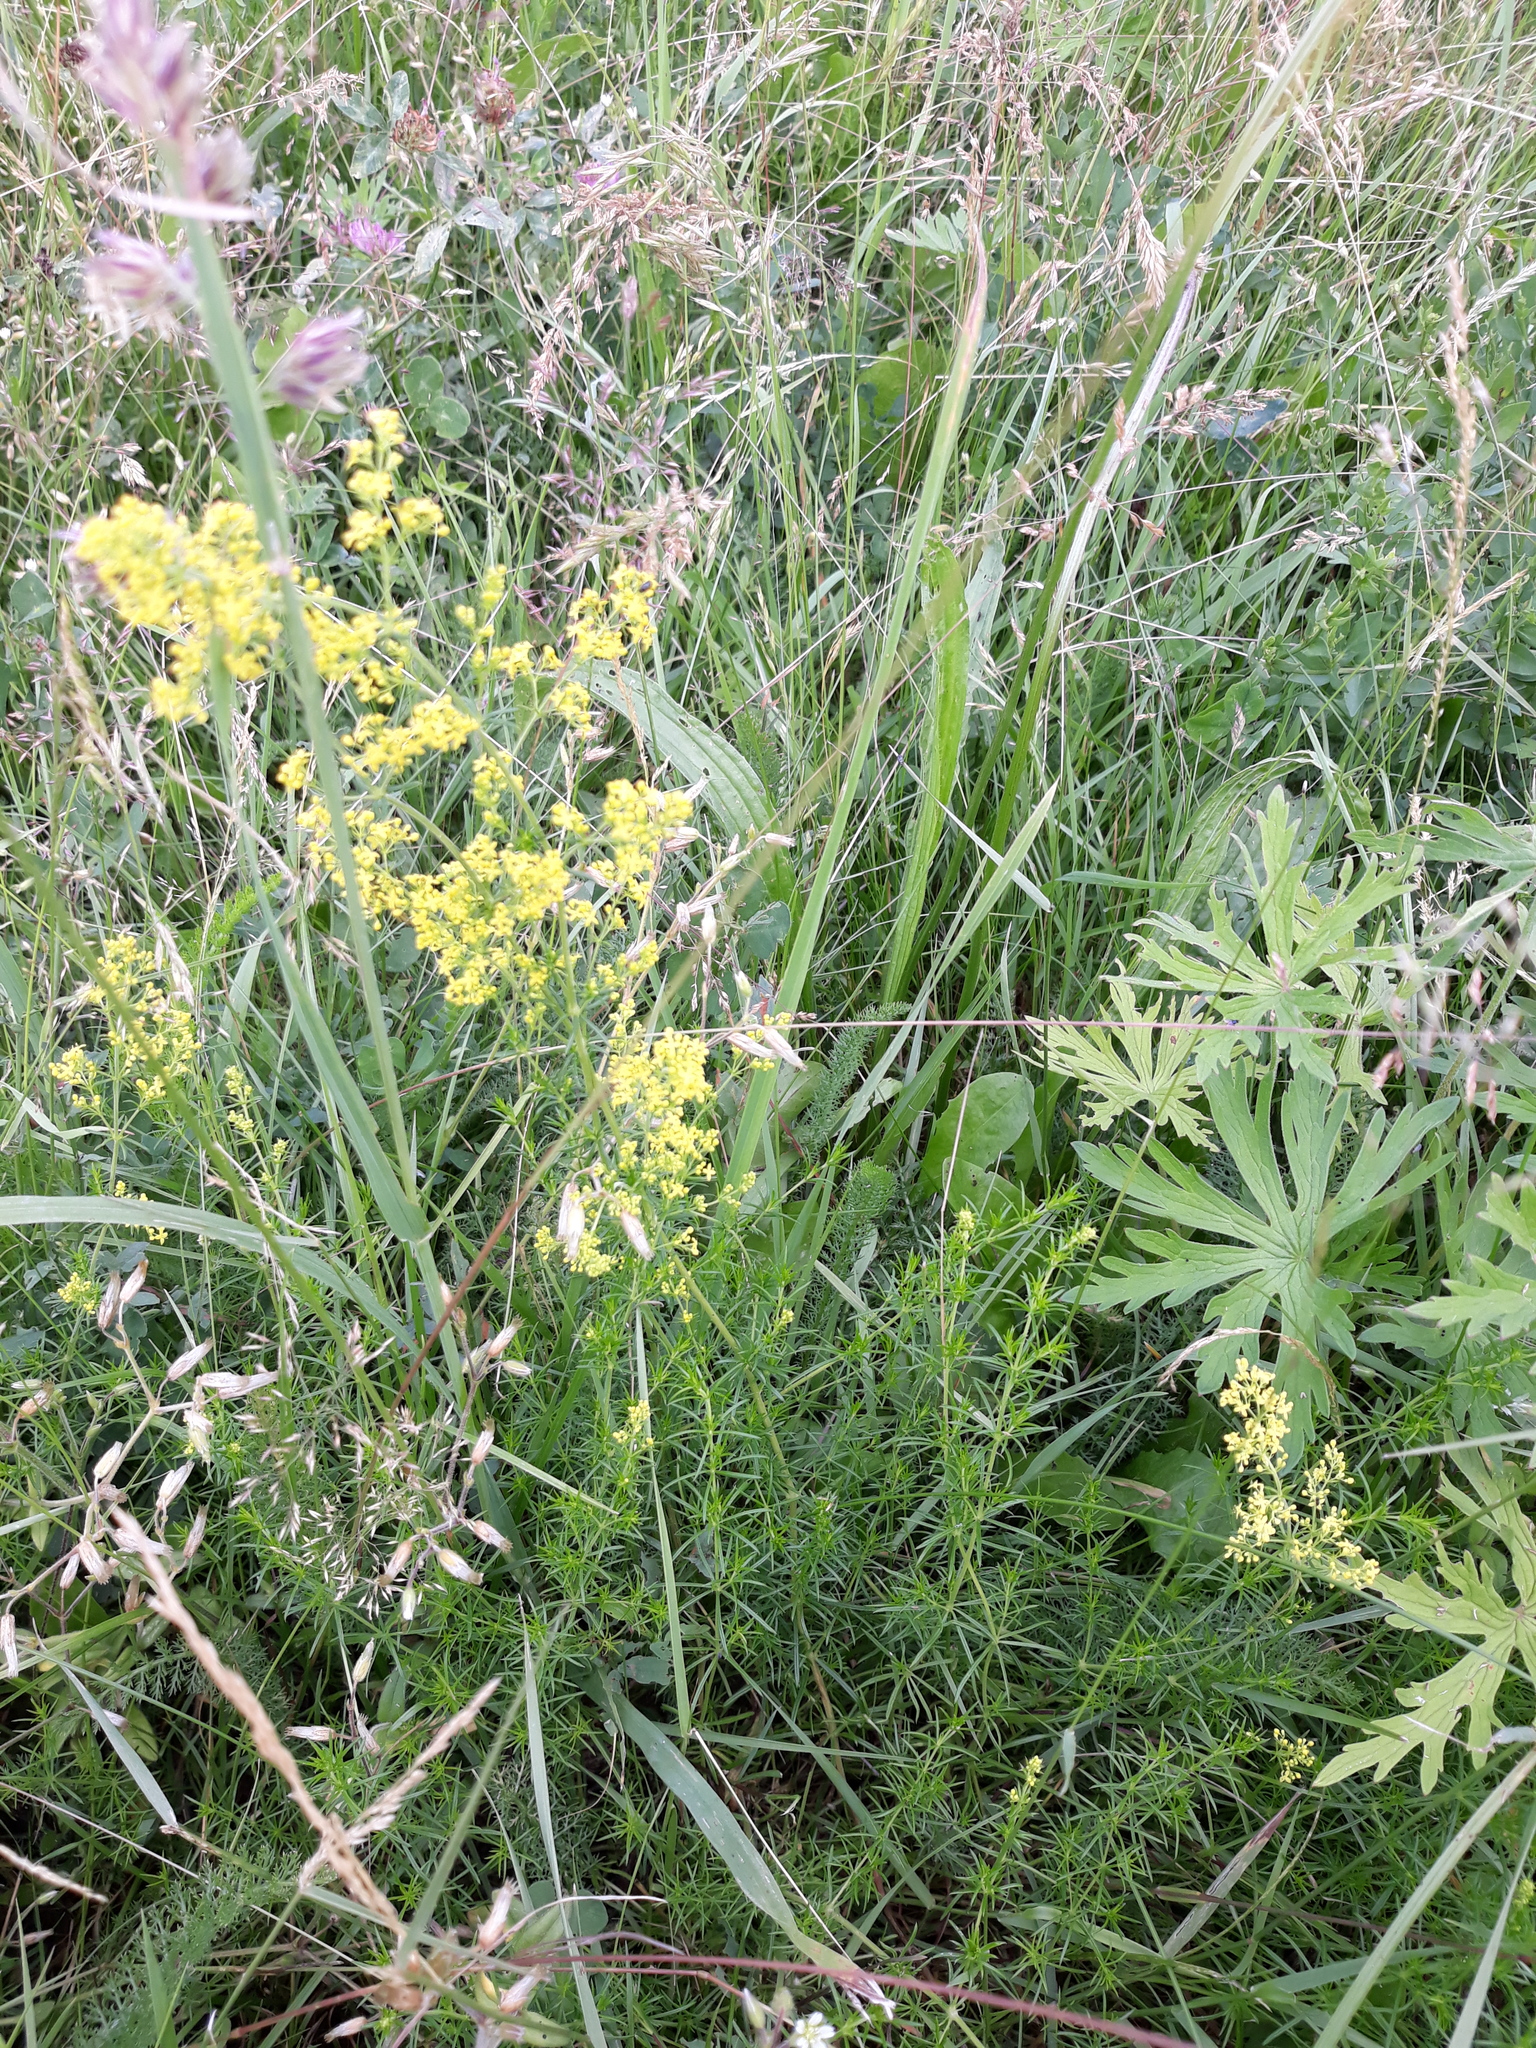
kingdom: Plantae
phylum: Tracheophyta
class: Magnoliopsida
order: Gentianales
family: Rubiaceae
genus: Galium
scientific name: Galium verum
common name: Lady's bedstraw
